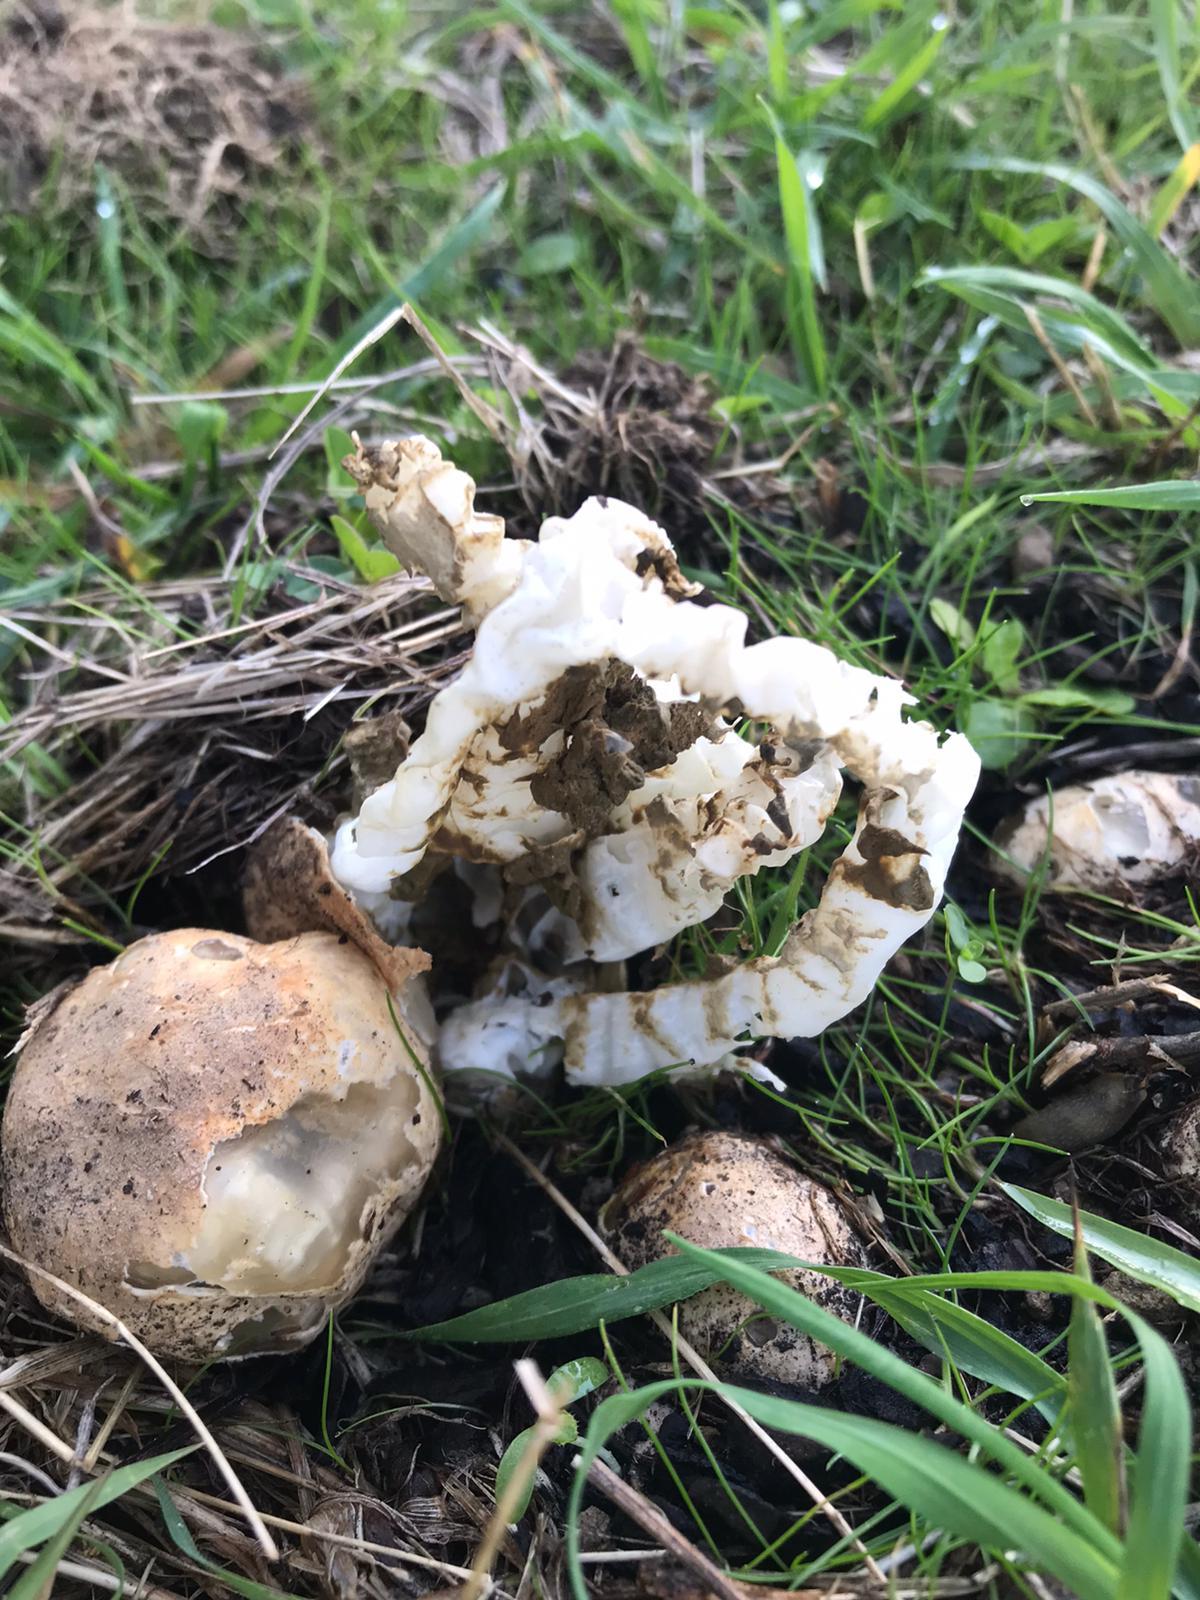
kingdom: Fungi
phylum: Basidiomycota
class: Agaricomycetes
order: Phallales
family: Phallaceae
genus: Ileodictyon
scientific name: Ileodictyon cibarium
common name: Basket fungus
